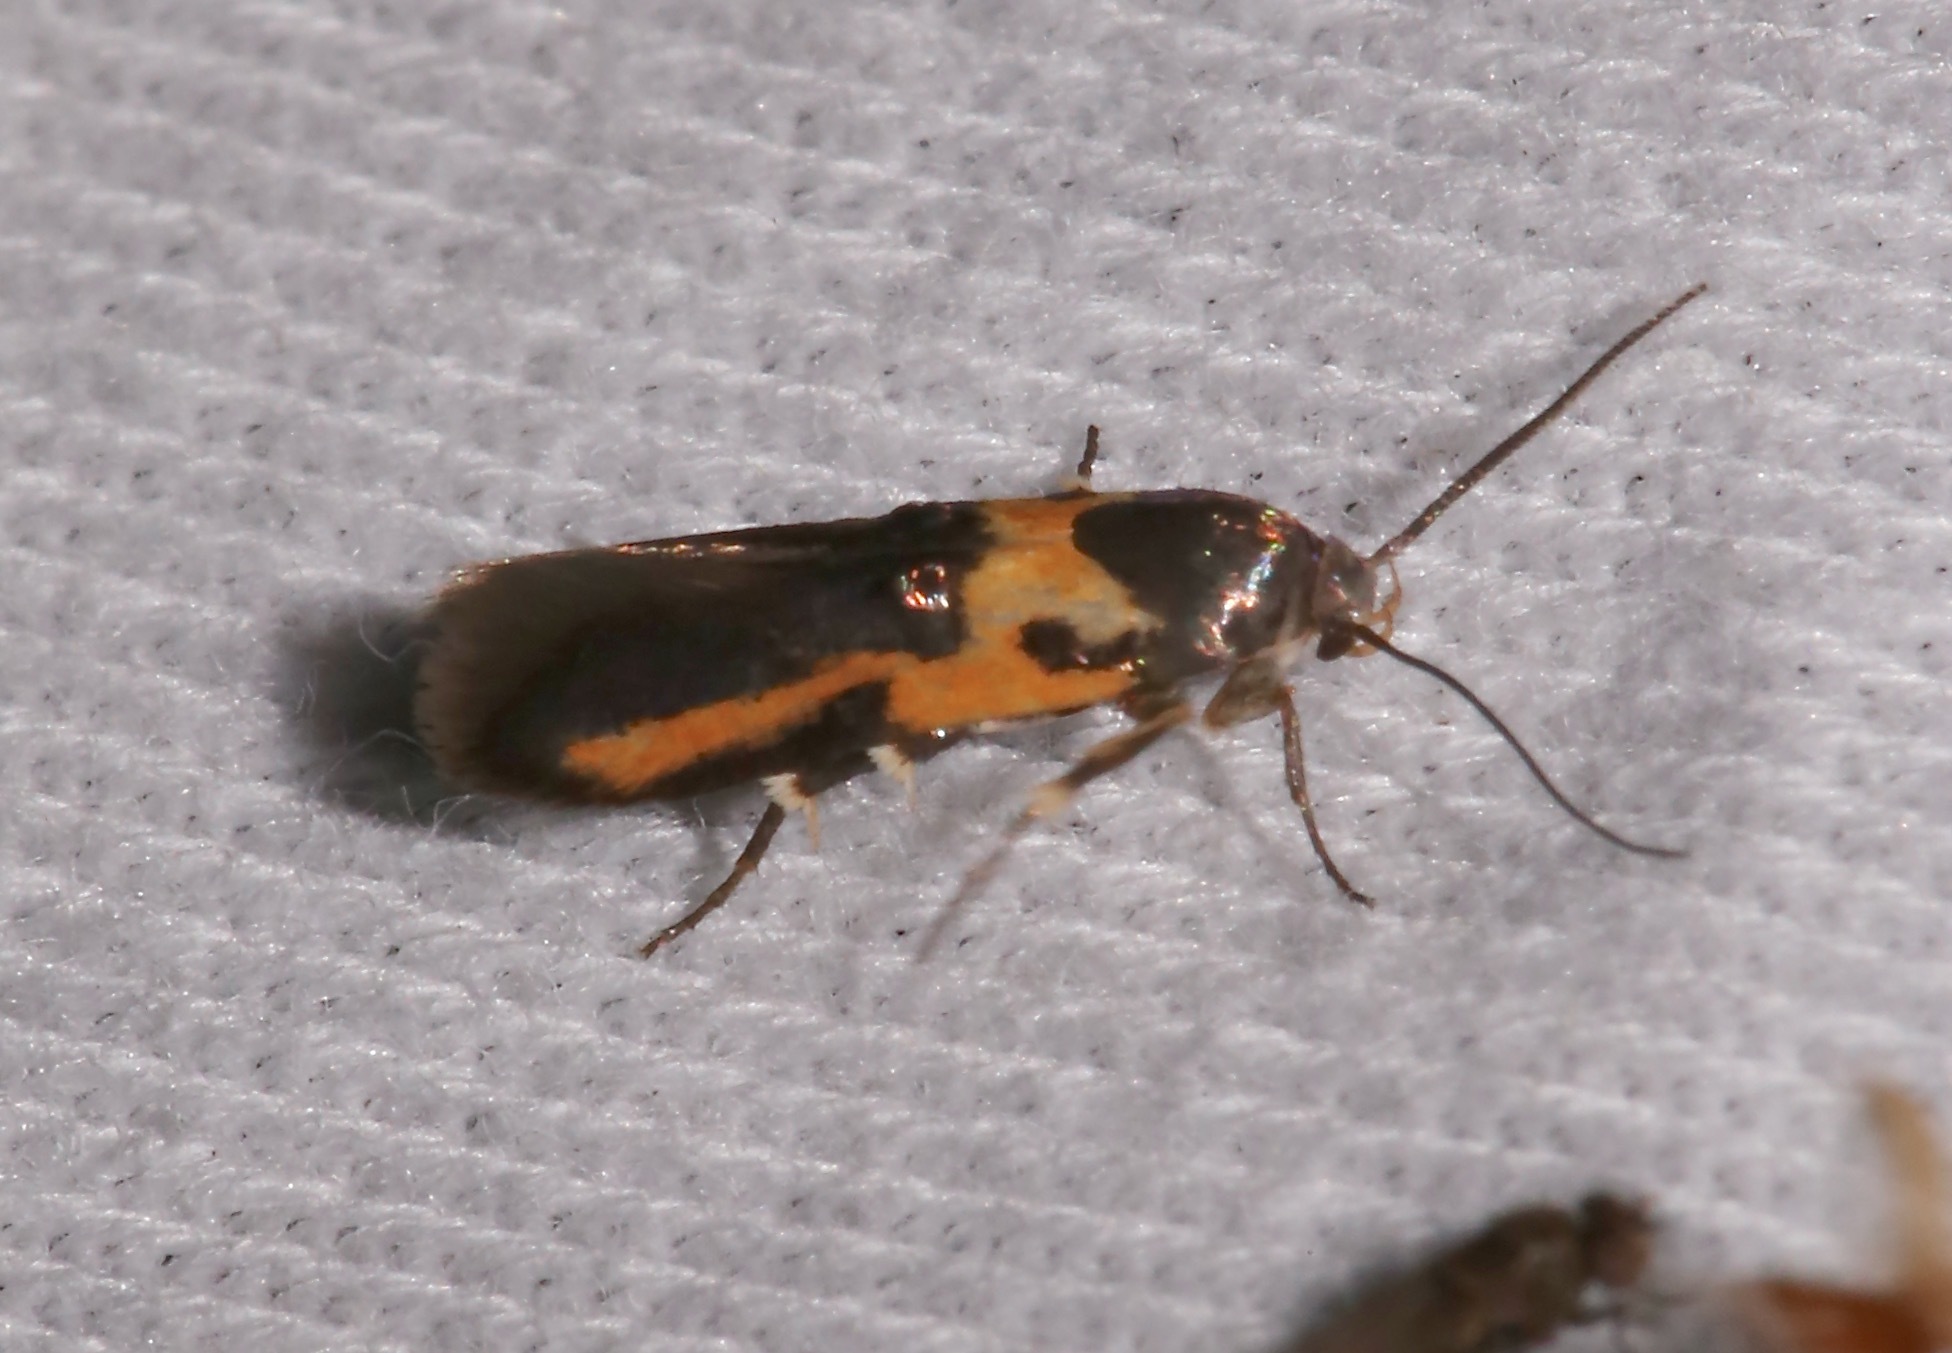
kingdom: Animalia
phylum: Arthropoda
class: Insecta
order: Lepidoptera
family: Cosmopterigidae
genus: Euclemensia
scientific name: Euclemensia bassettella
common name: Kermes scale moth
